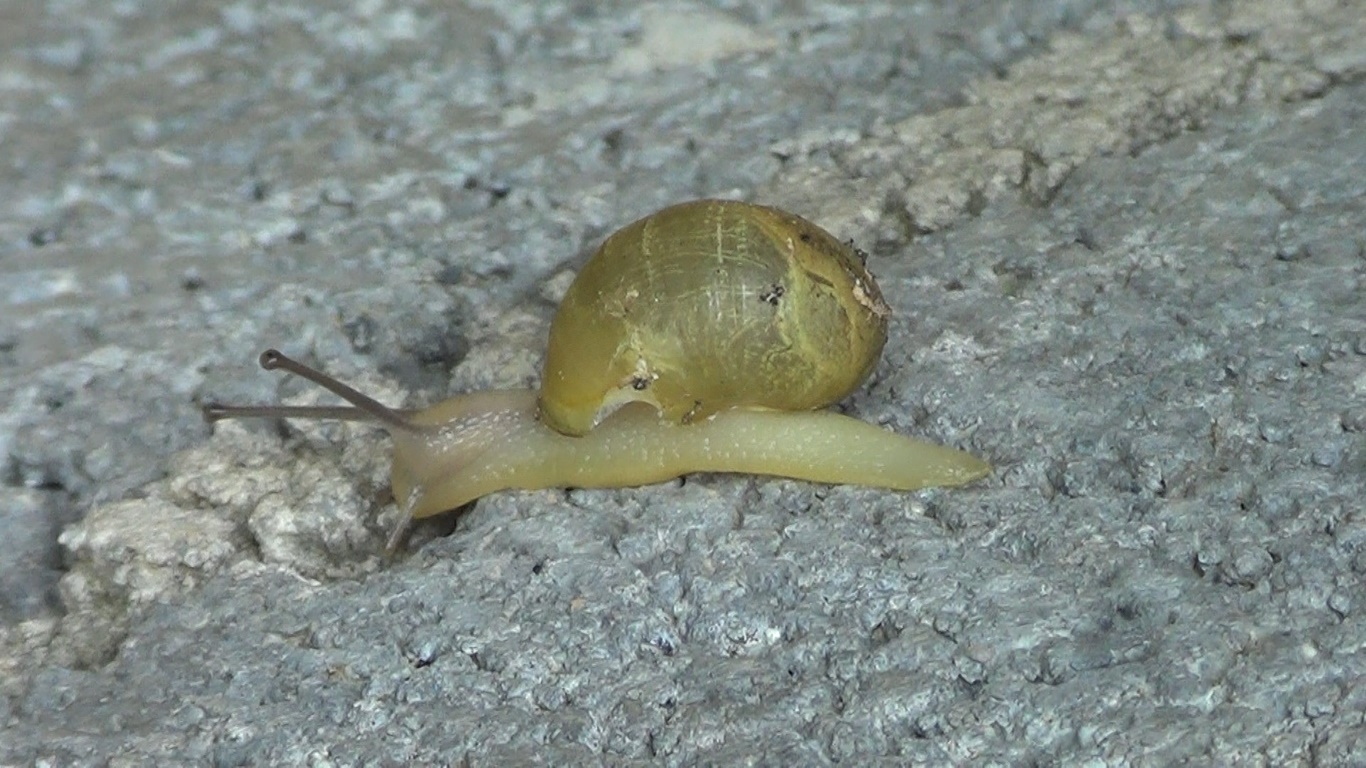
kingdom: Animalia
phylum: Mollusca
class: Gastropoda
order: Stylommatophora
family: Helicidae
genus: Cantareus
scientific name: Cantareus apertus
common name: Green gardensnail
